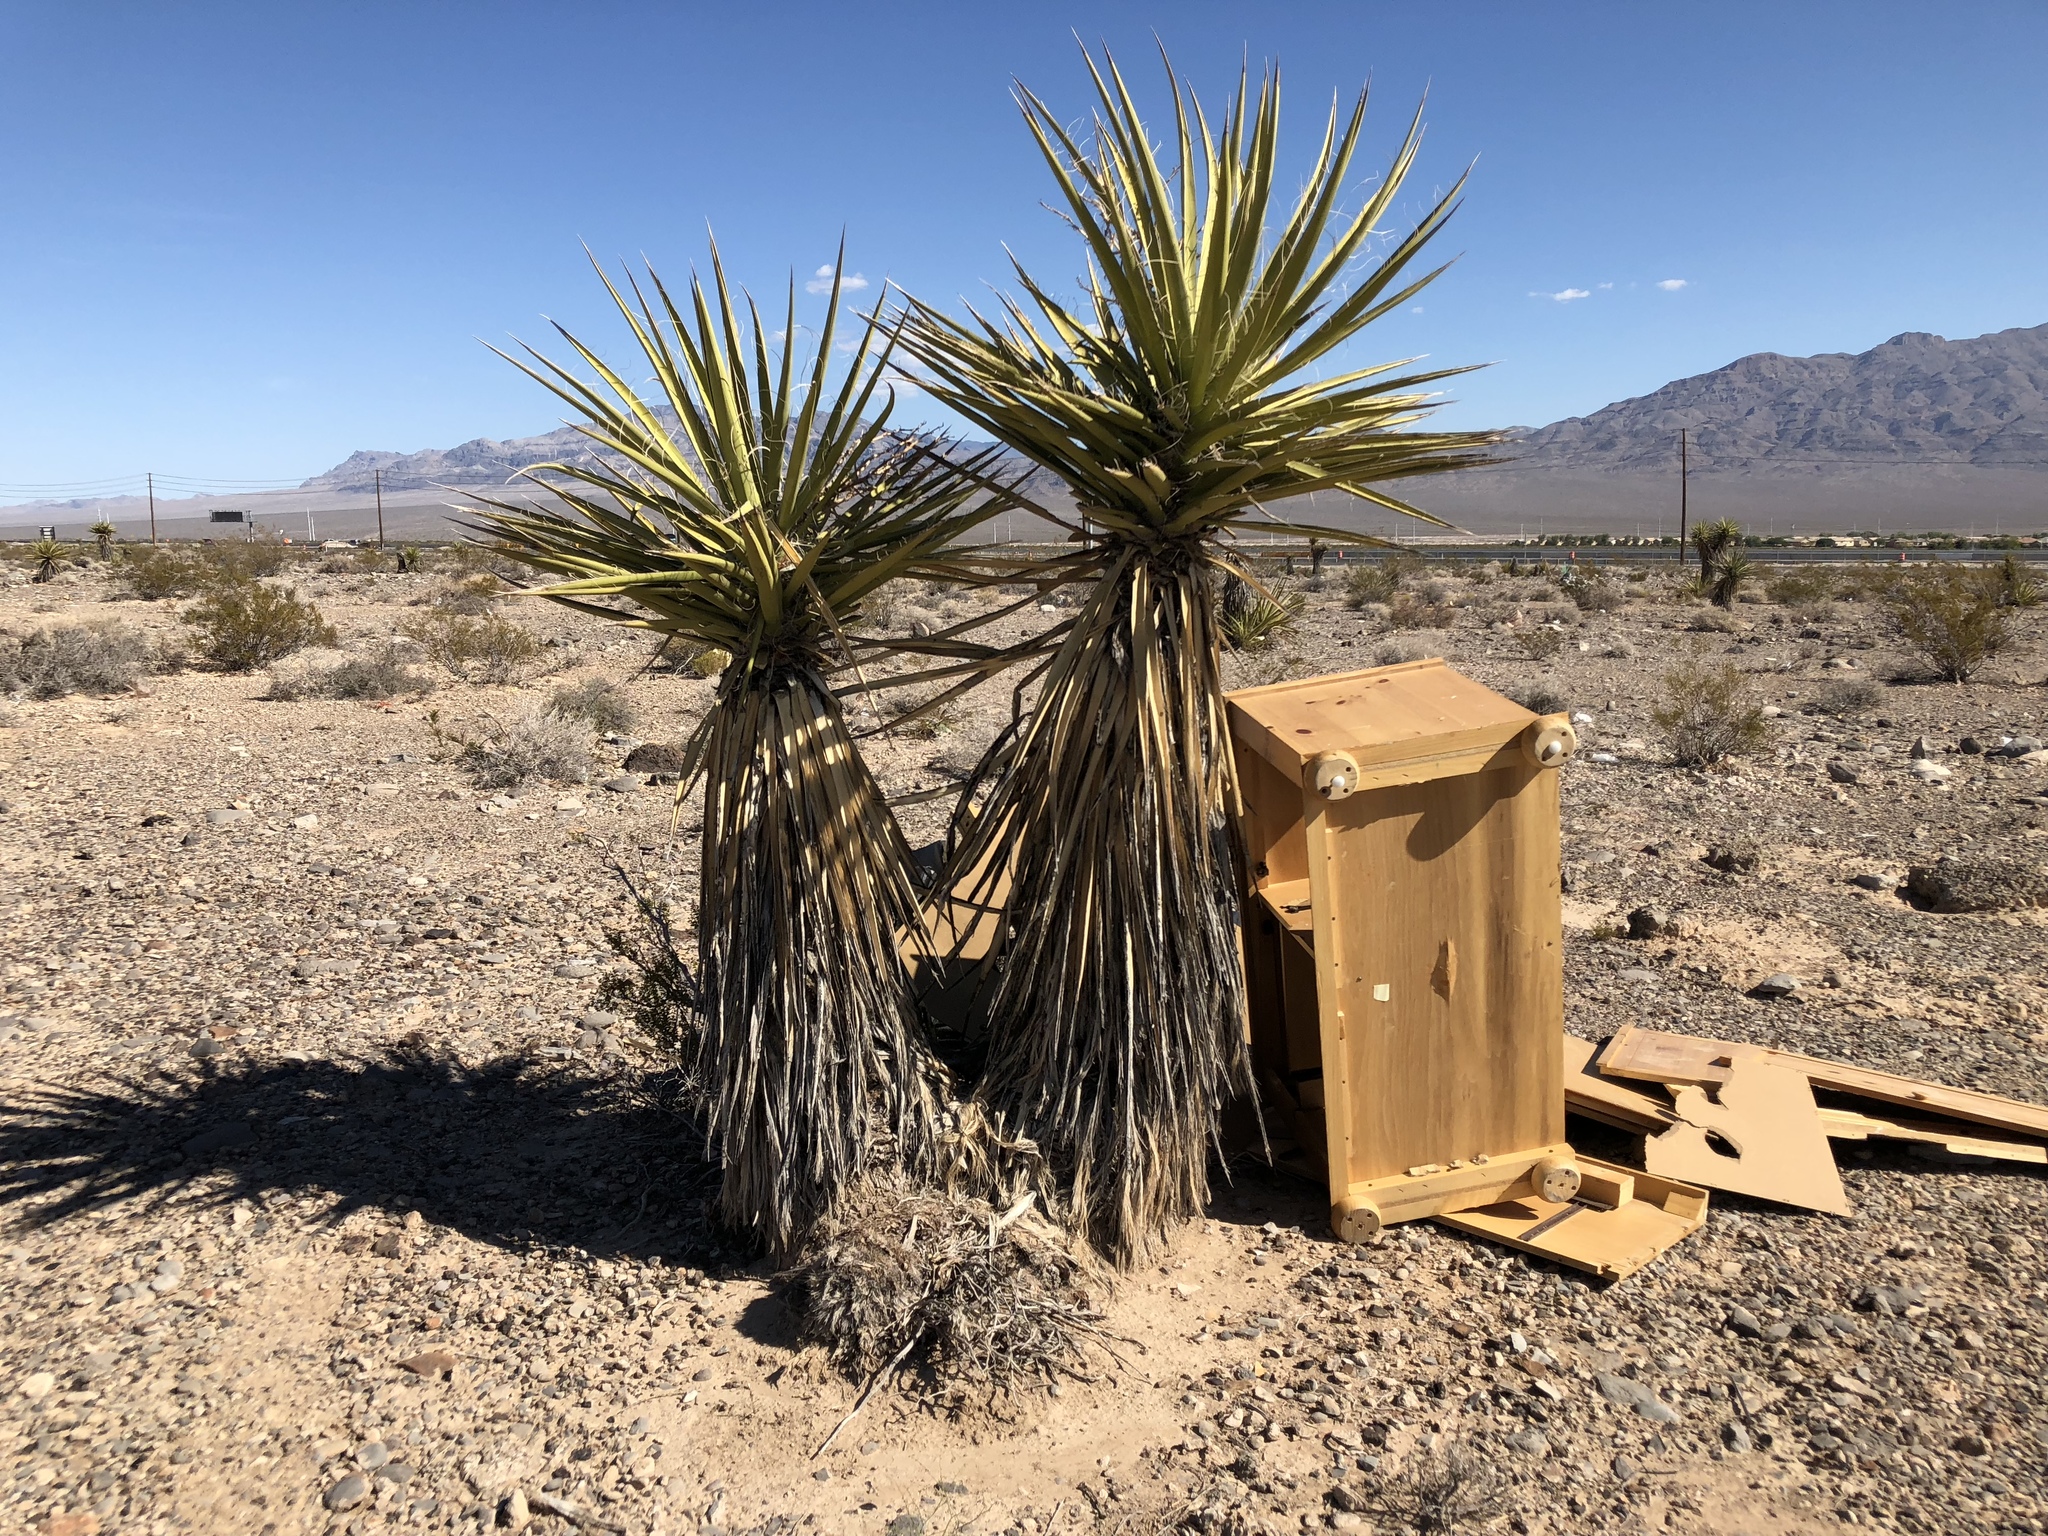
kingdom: Plantae
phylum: Tracheophyta
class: Liliopsida
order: Asparagales
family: Asparagaceae
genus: Yucca
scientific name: Yucca schidigera
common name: Mojave yucca
